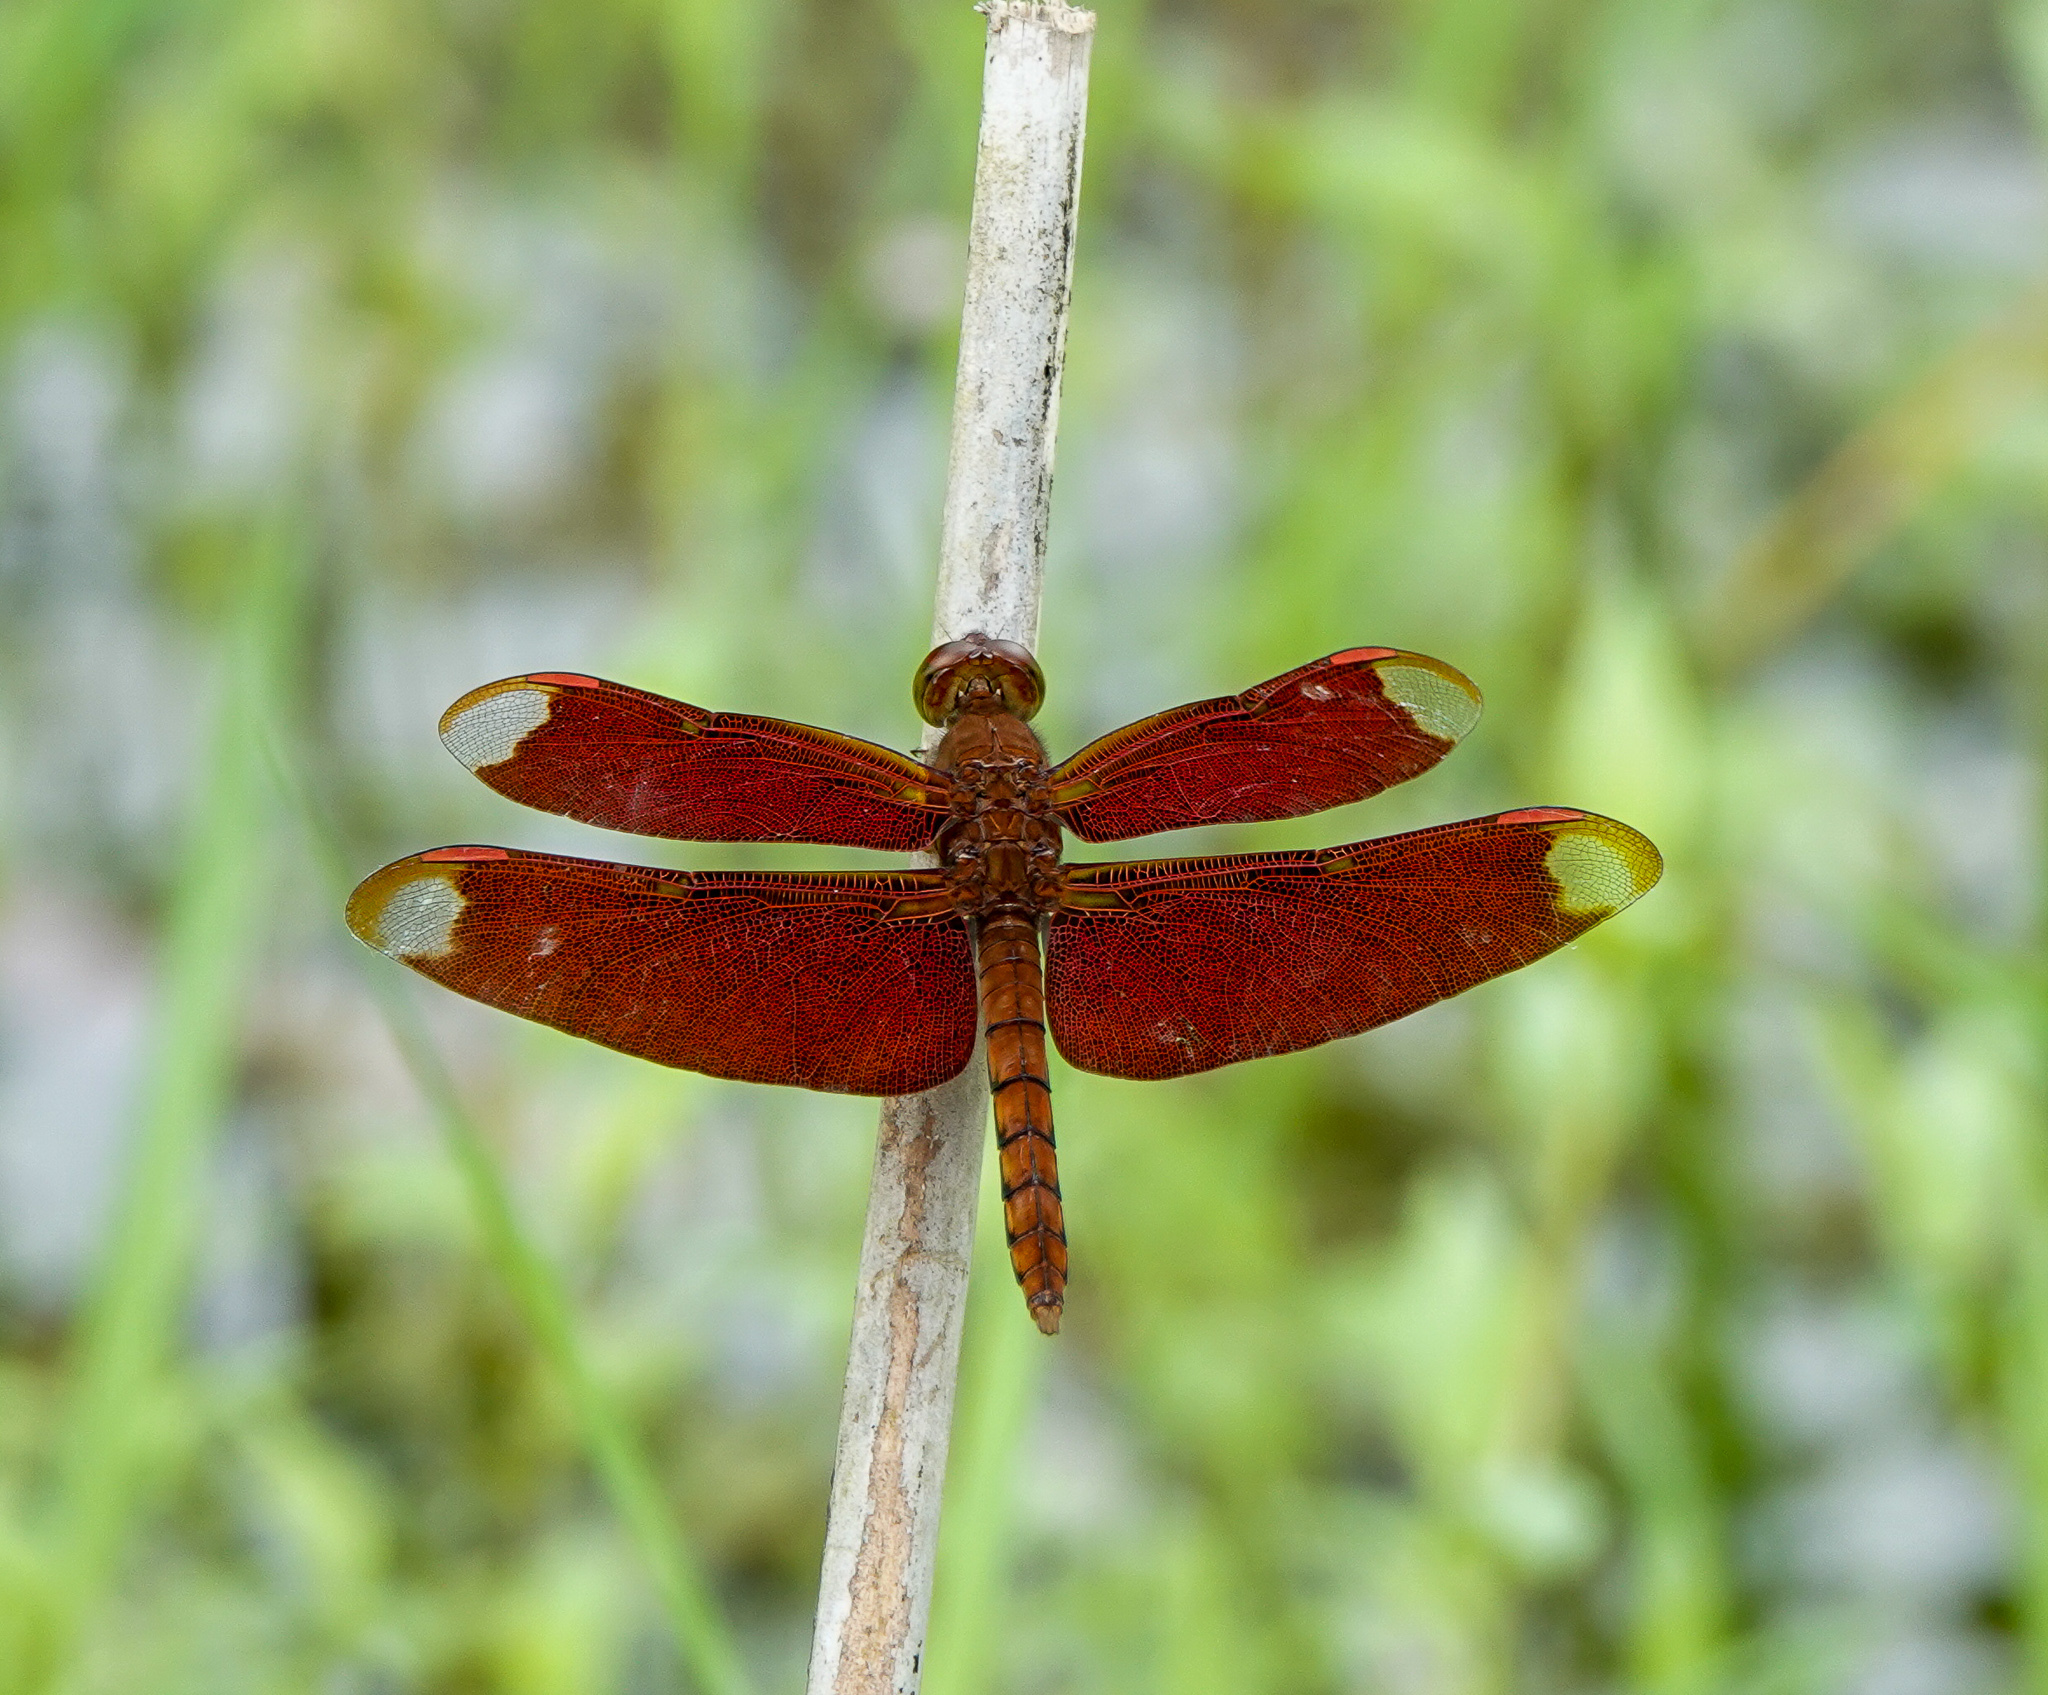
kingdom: Animalia
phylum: Arthropoda
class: Insecta
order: Odonata
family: Libellulidae
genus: Neurothemis
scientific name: Neurothemis fulvia
